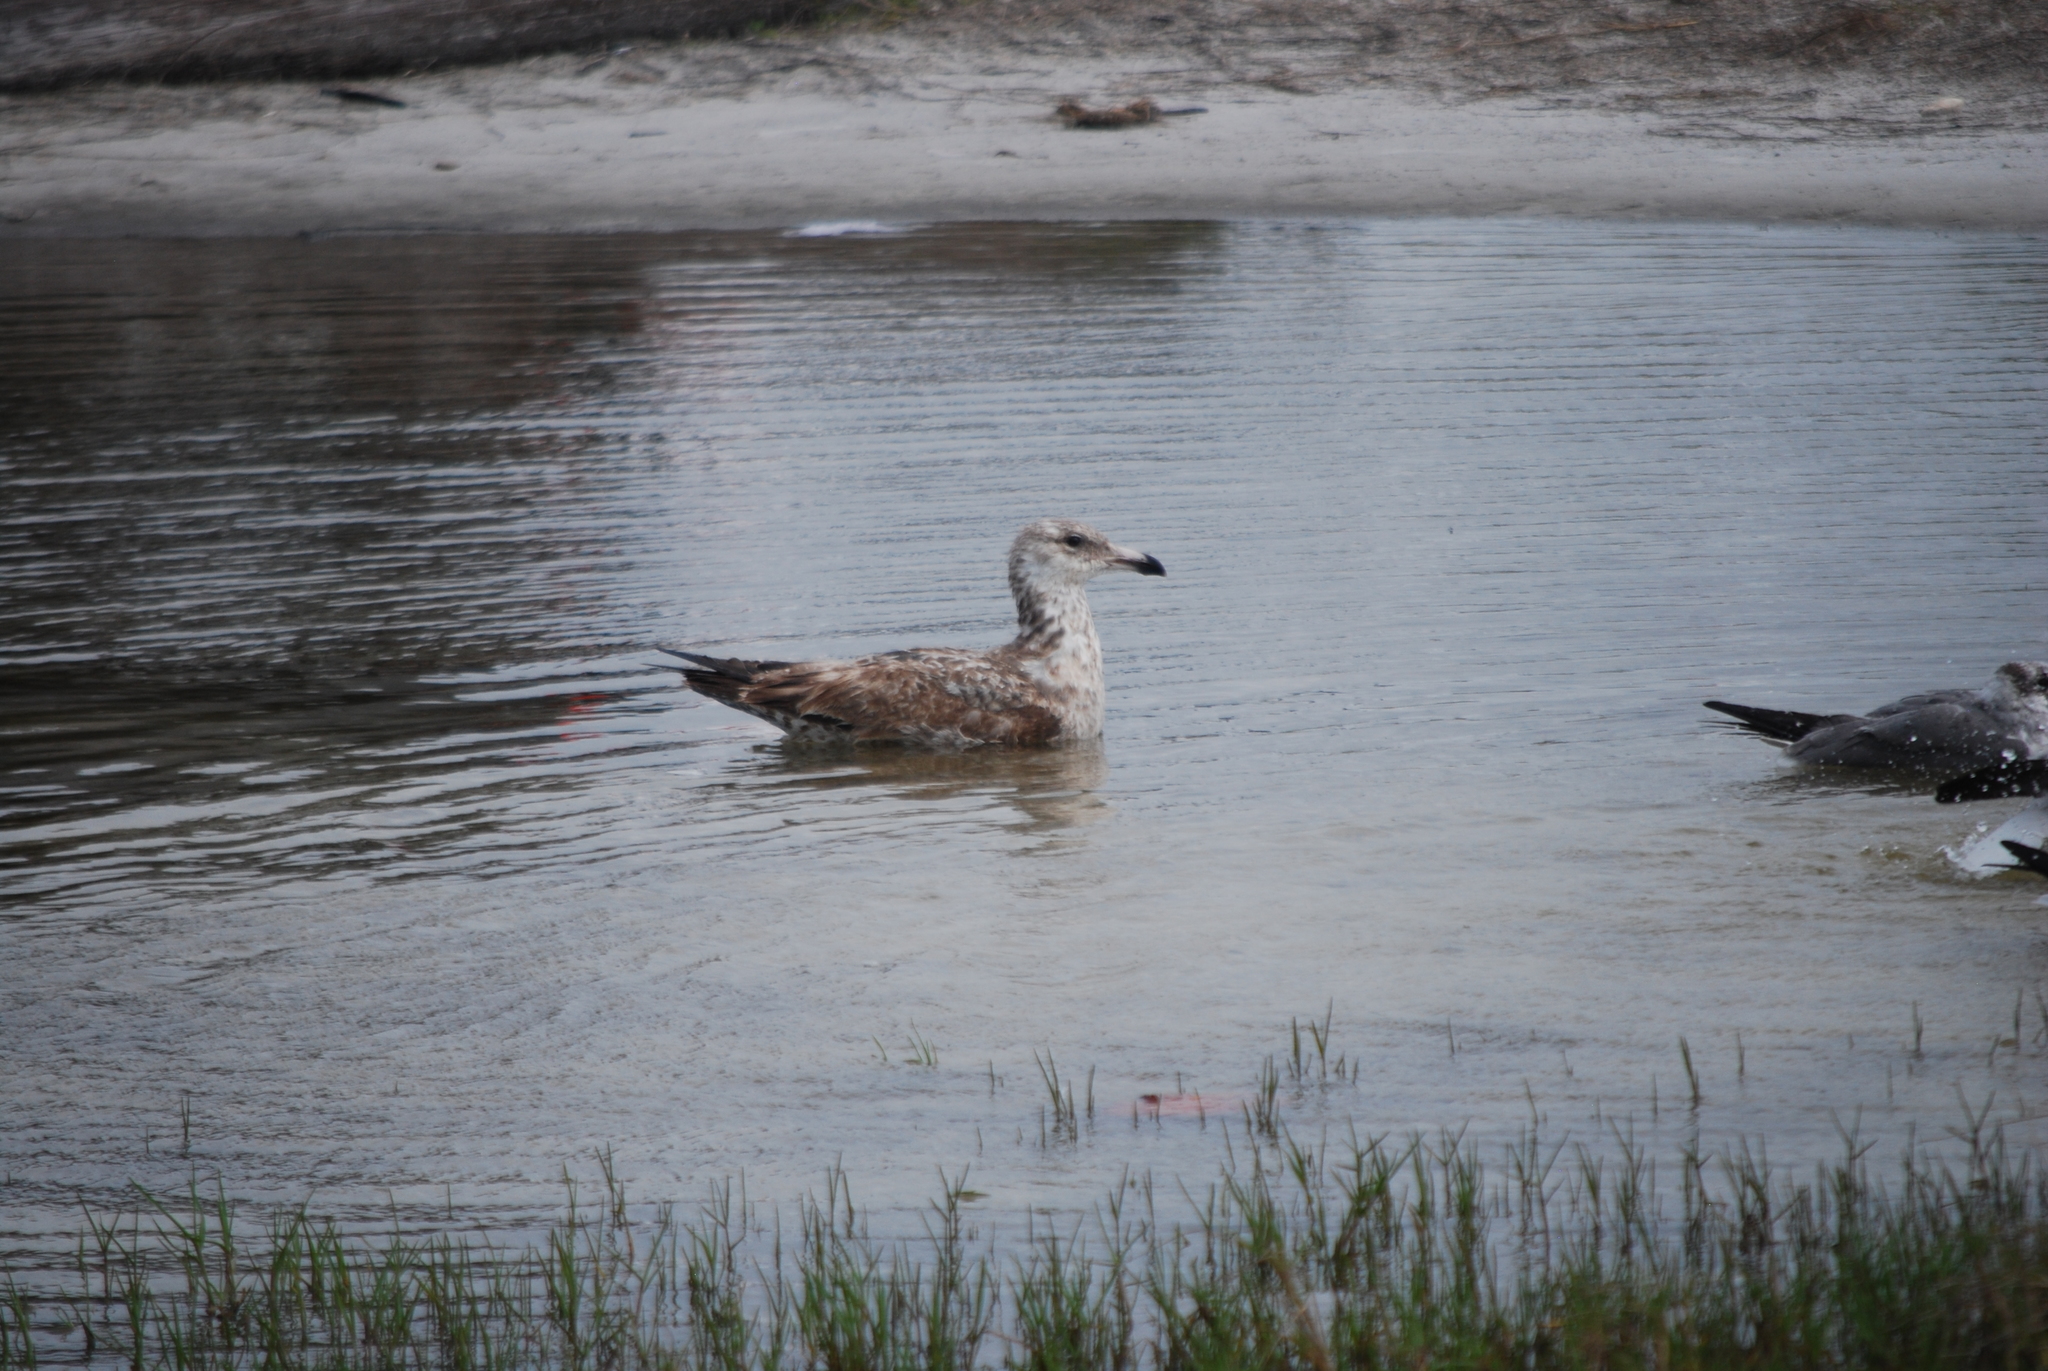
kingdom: Animalia
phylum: Chordata
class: Aves
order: Charadriiformes
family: Laridae
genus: Larus
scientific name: Larus argentatus
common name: Herring gull
